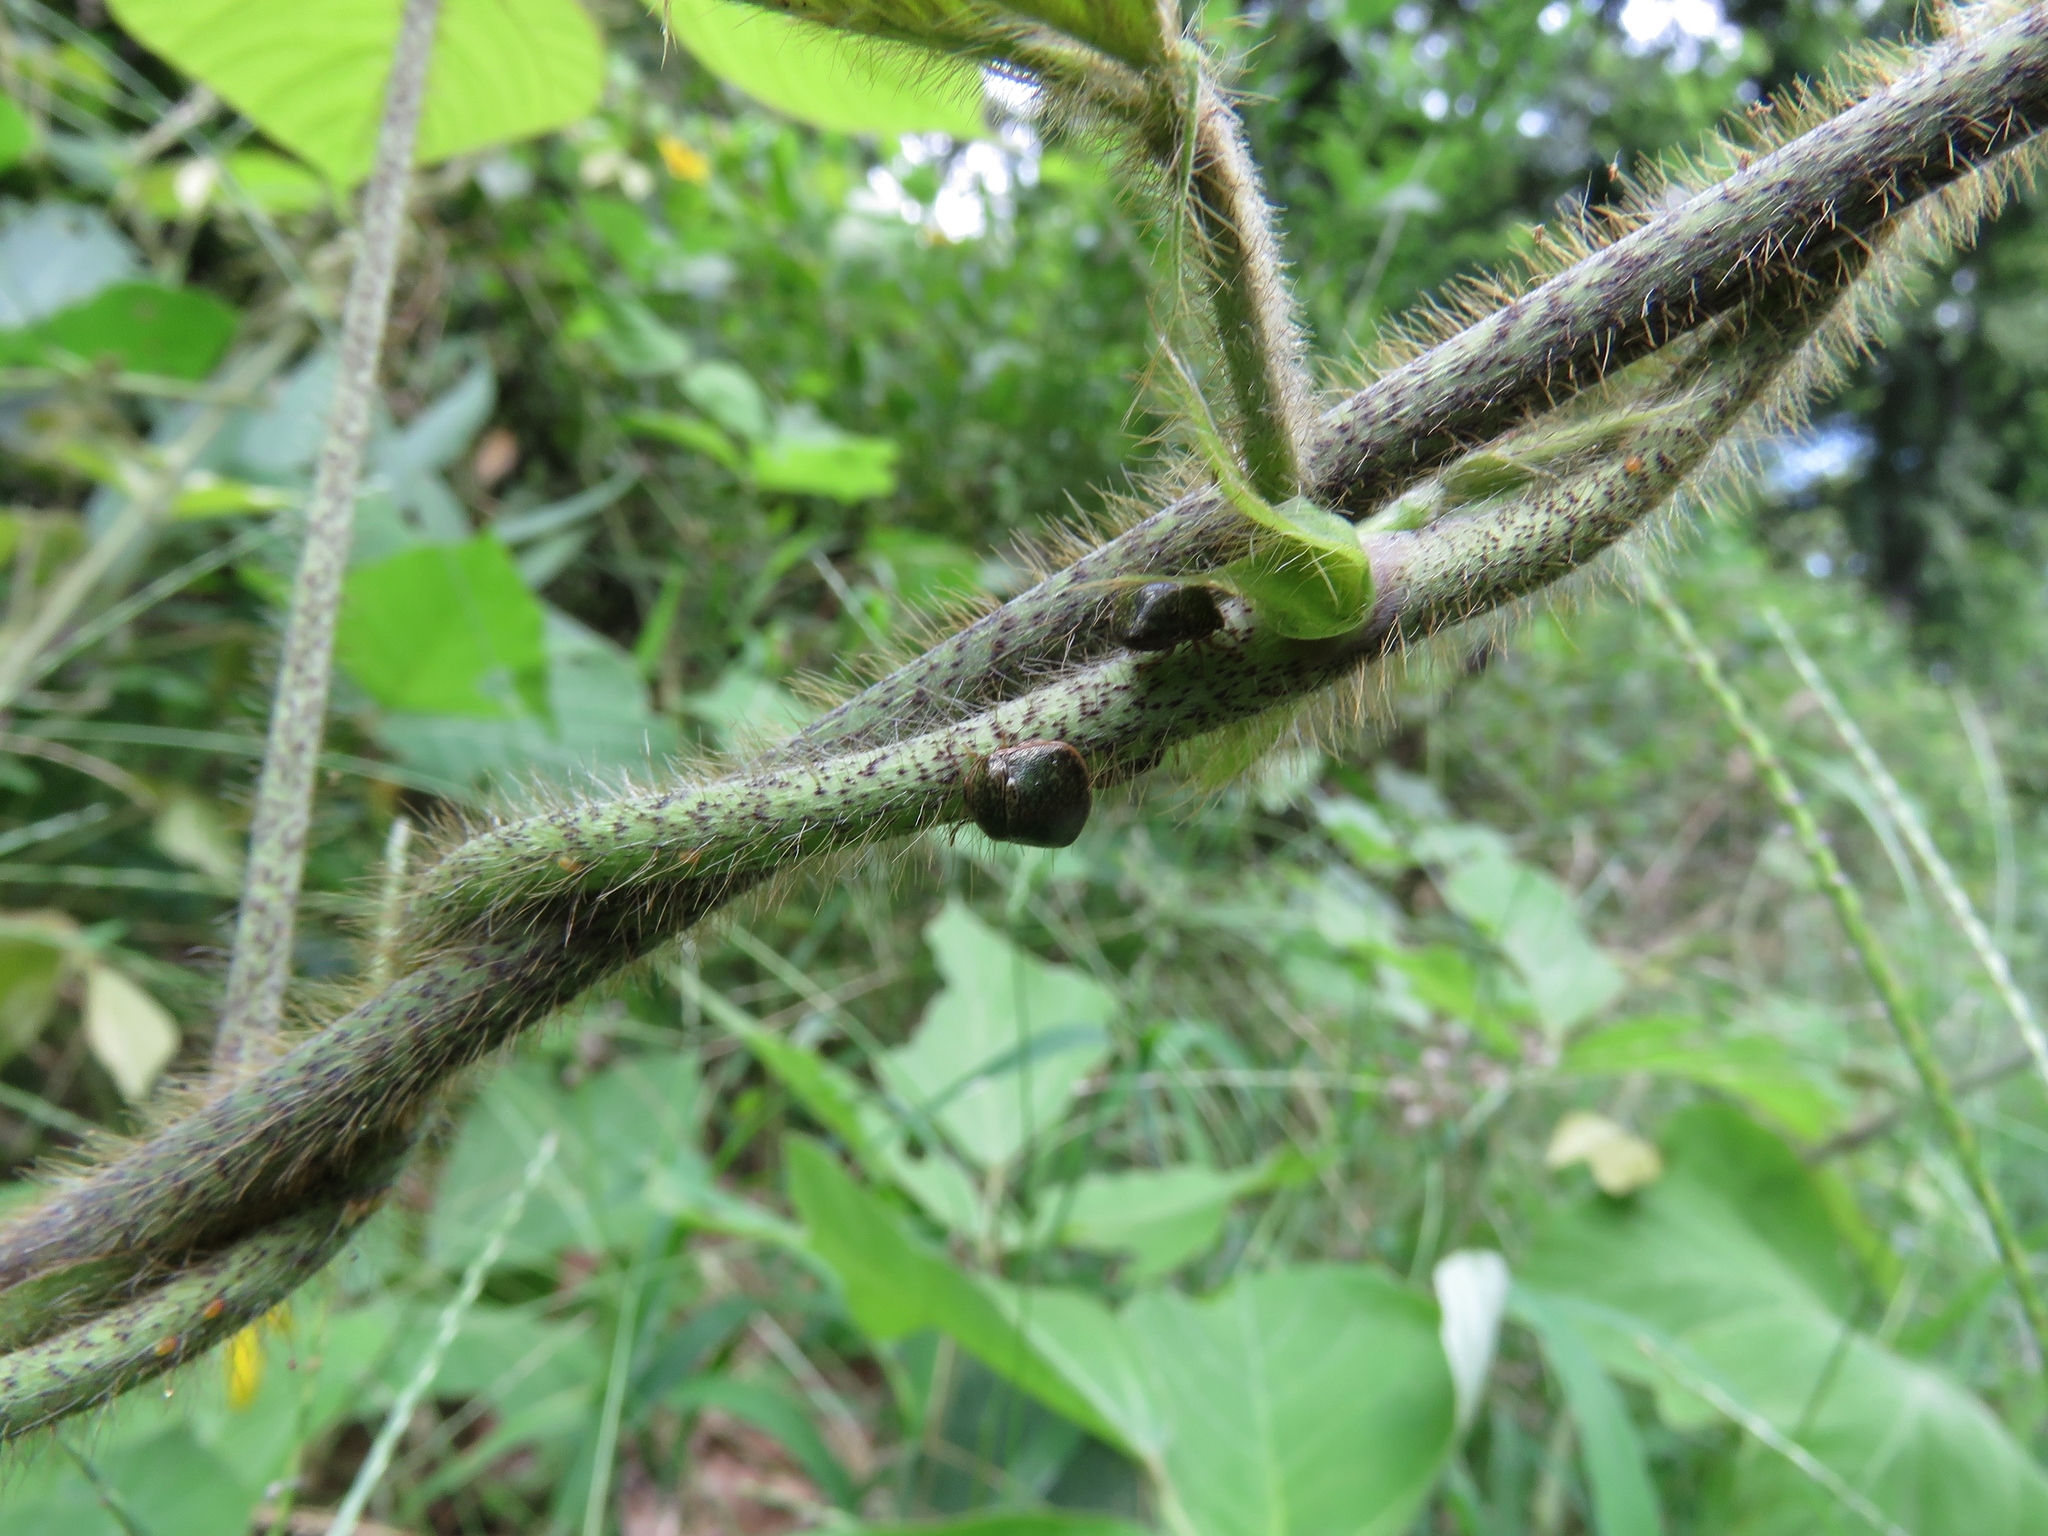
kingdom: Animalia
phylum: Arthropoda
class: Insecta
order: Hemiptera
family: Plataspidae
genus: Megacopta
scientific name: Megacopta cribraria
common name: Bean plataspid
